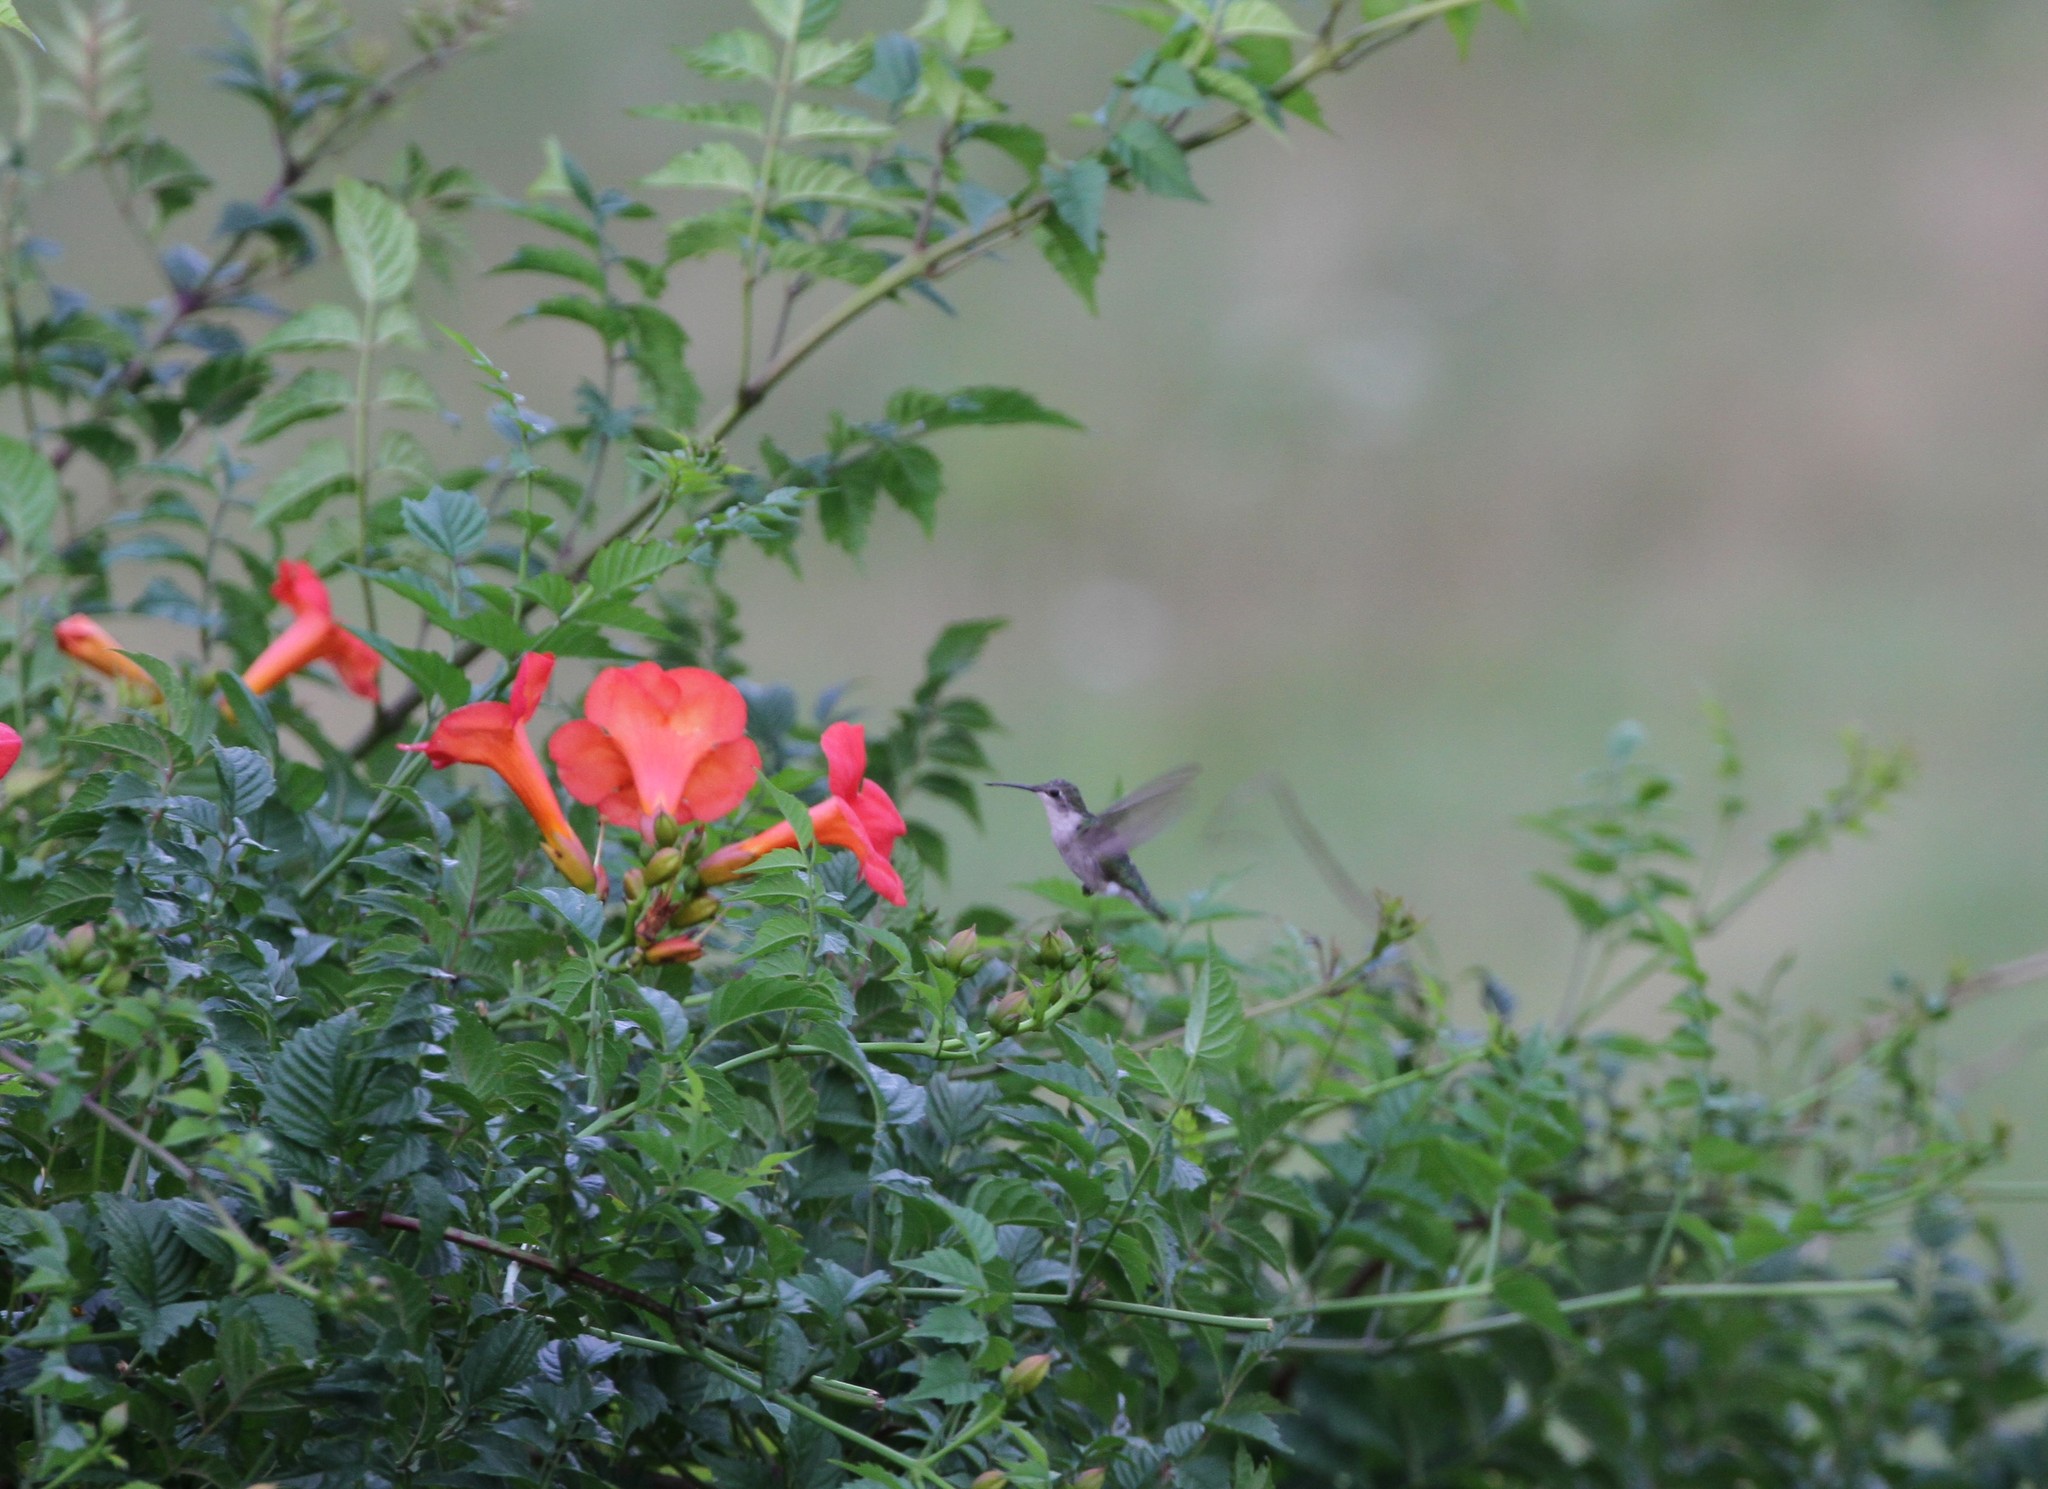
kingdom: Animalia
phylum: Chordata
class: Aves
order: Apodiformes
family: Trochilidae
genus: Archilochus
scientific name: Archilochus colubris
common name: Ruby-throated hummingbird
